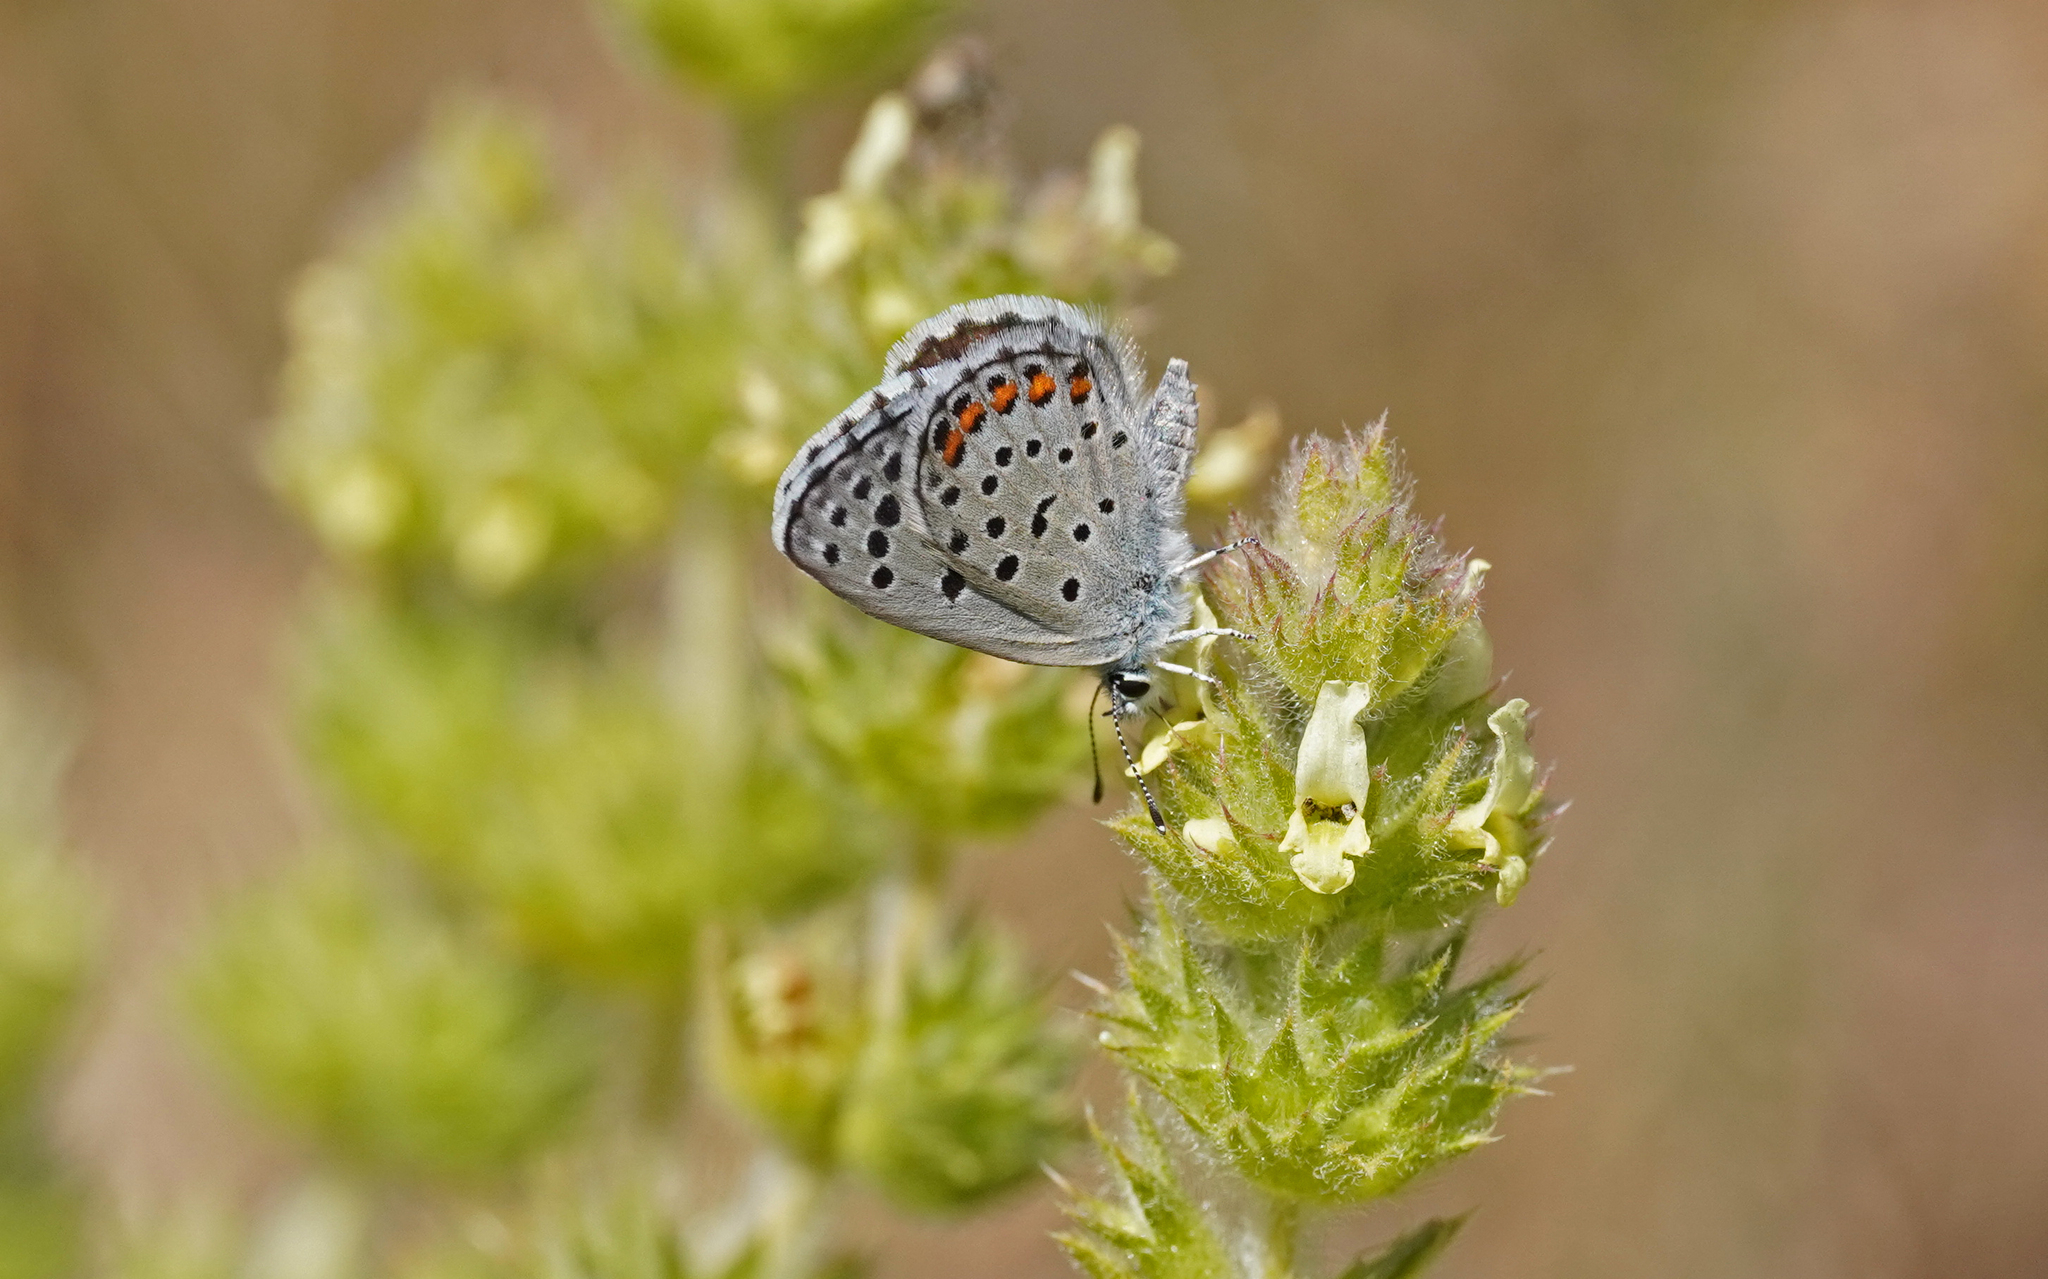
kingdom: Animalia
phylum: Arthropoda
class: Insecta
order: Lepidoptera
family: Lycaenidae
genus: Pseudophilotes
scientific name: Pseudophilotes baton
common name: Baton blue
